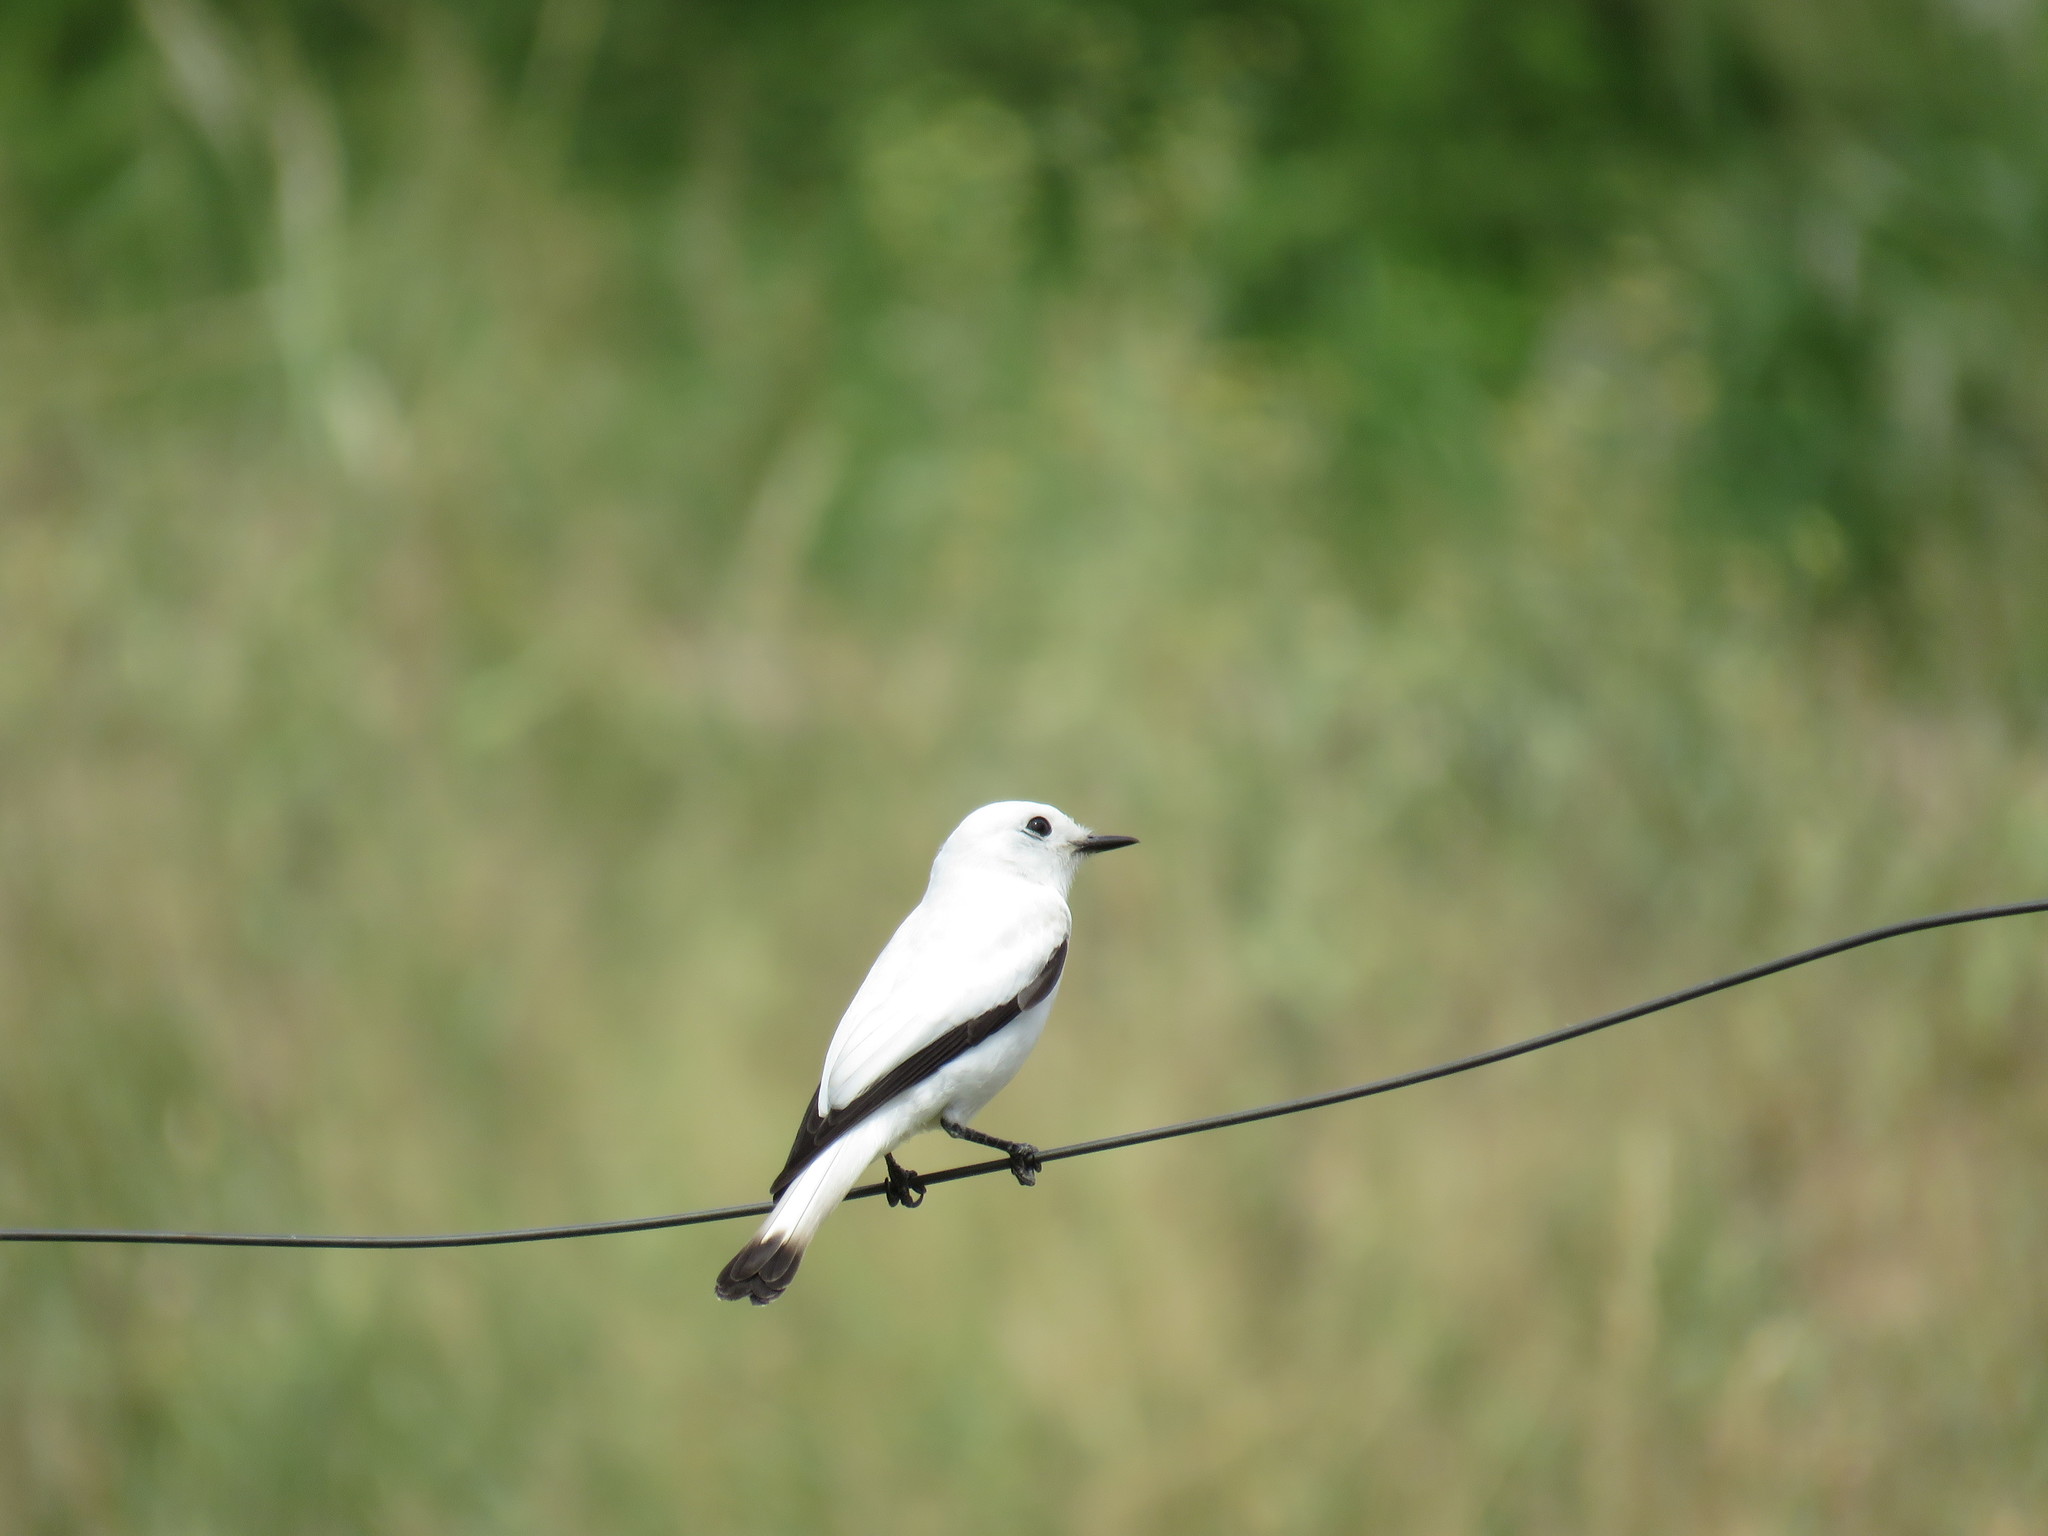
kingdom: Animalia
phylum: Chordata
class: Aves
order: Passeriformes
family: Tyrannidae
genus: Xolmis
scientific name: Xolmis irupero
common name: White monjita
